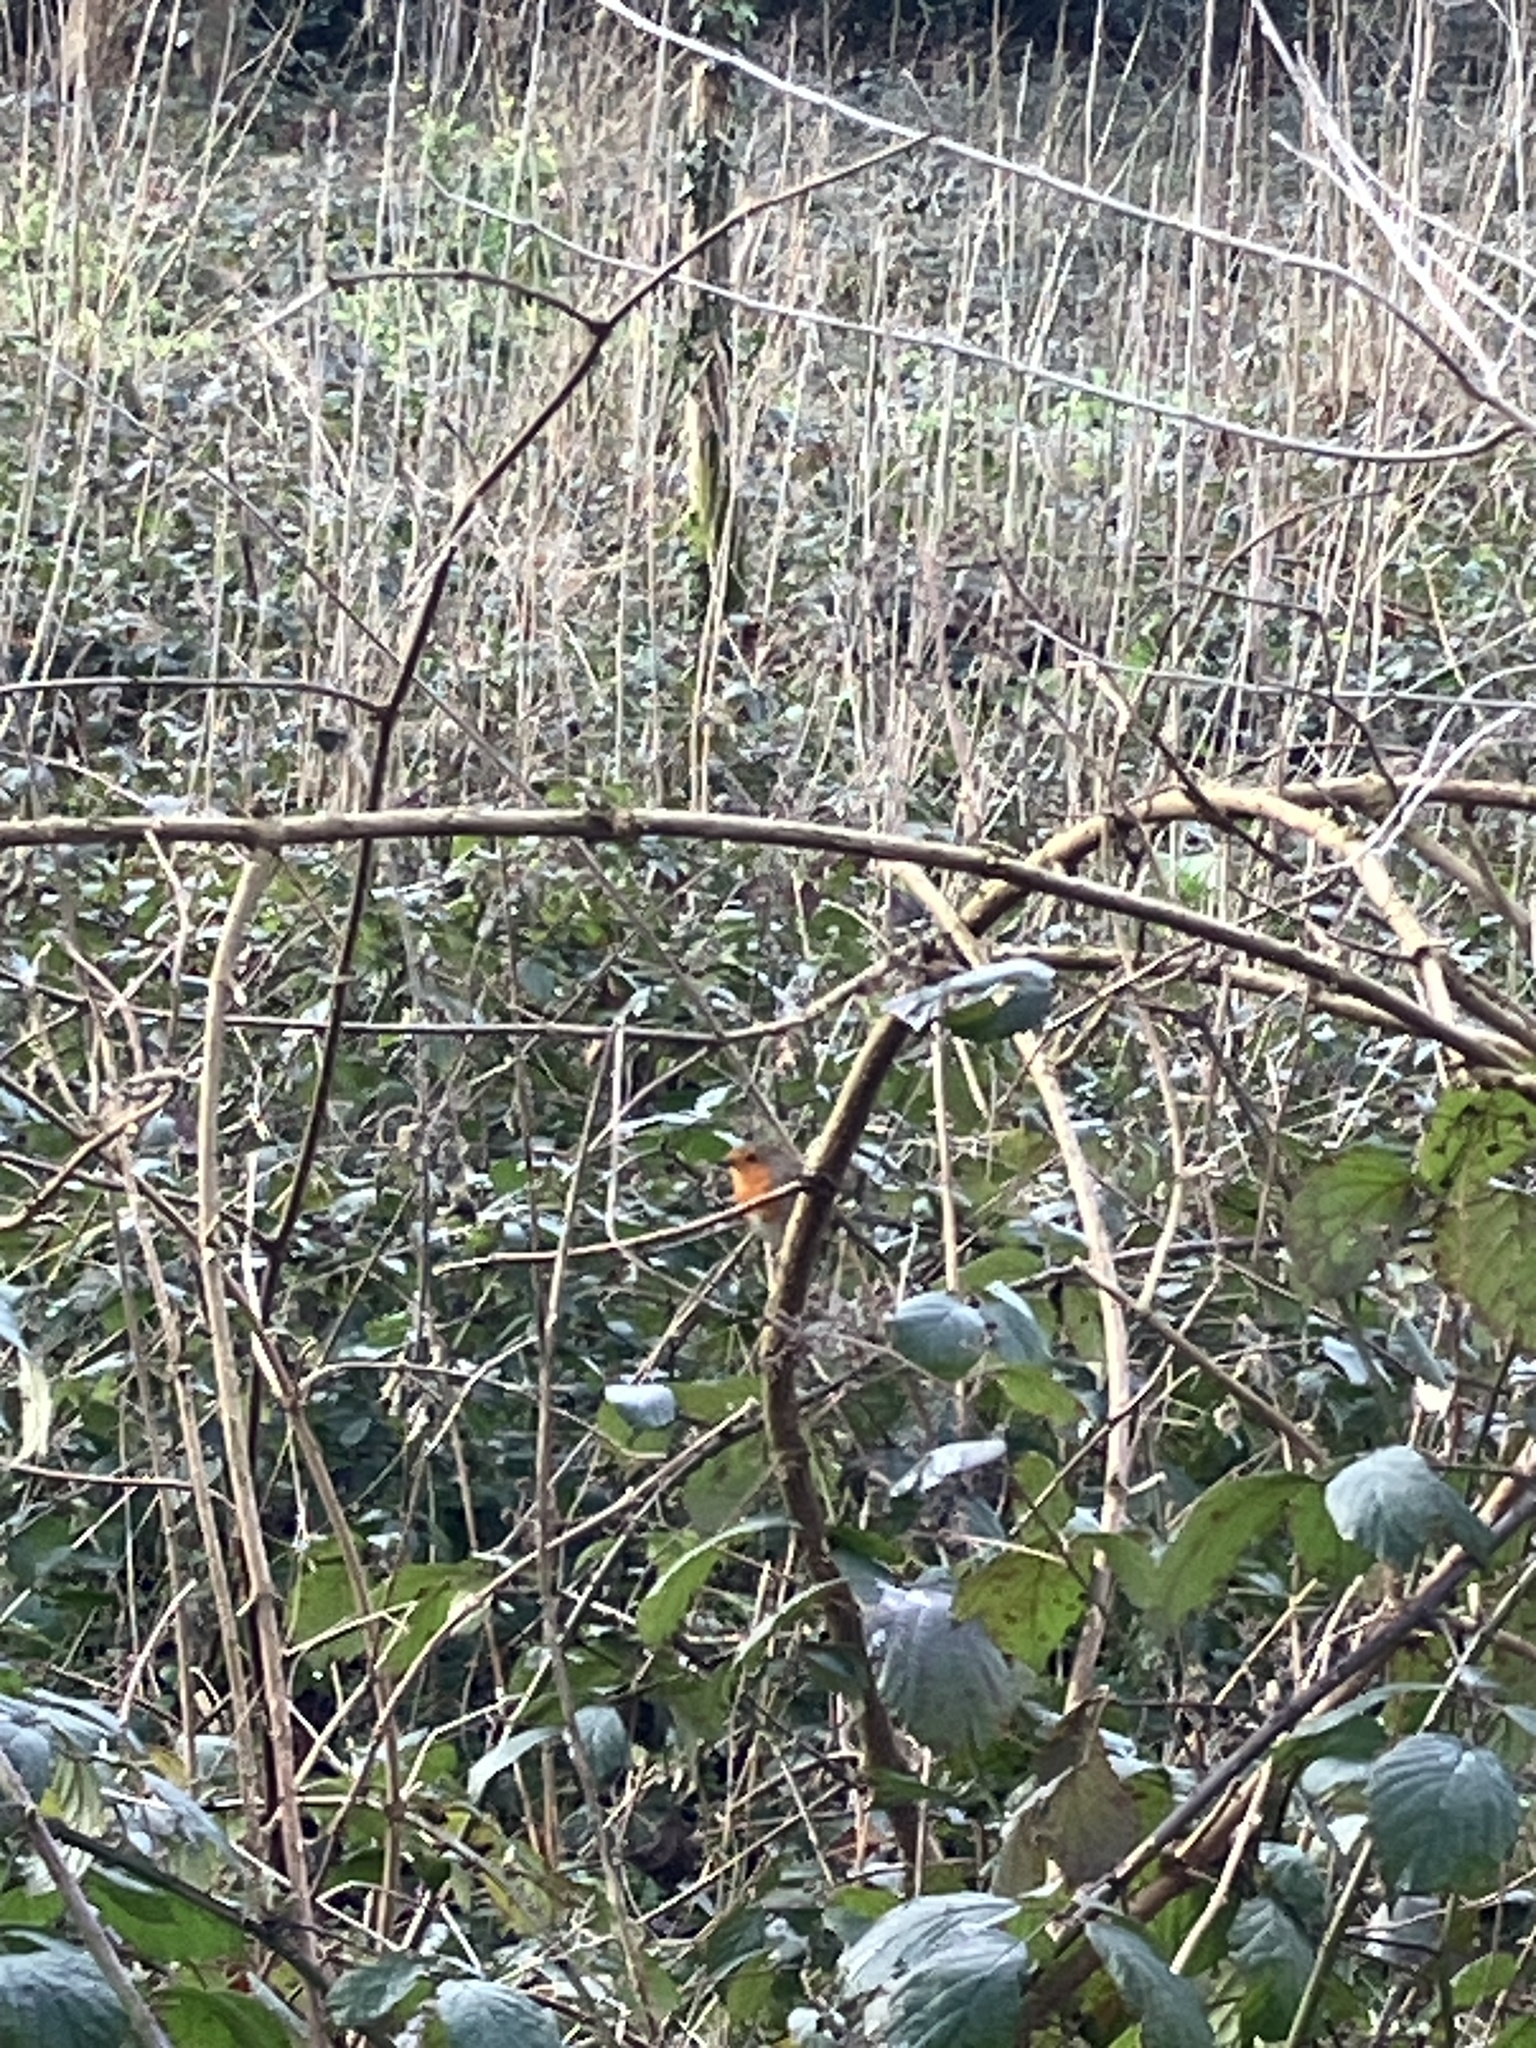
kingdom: Animalia
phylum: Chordata
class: Aves
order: Passeriformes
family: Muscicapidae
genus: Erithacus
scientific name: Erithacus rubecula
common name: European robin
